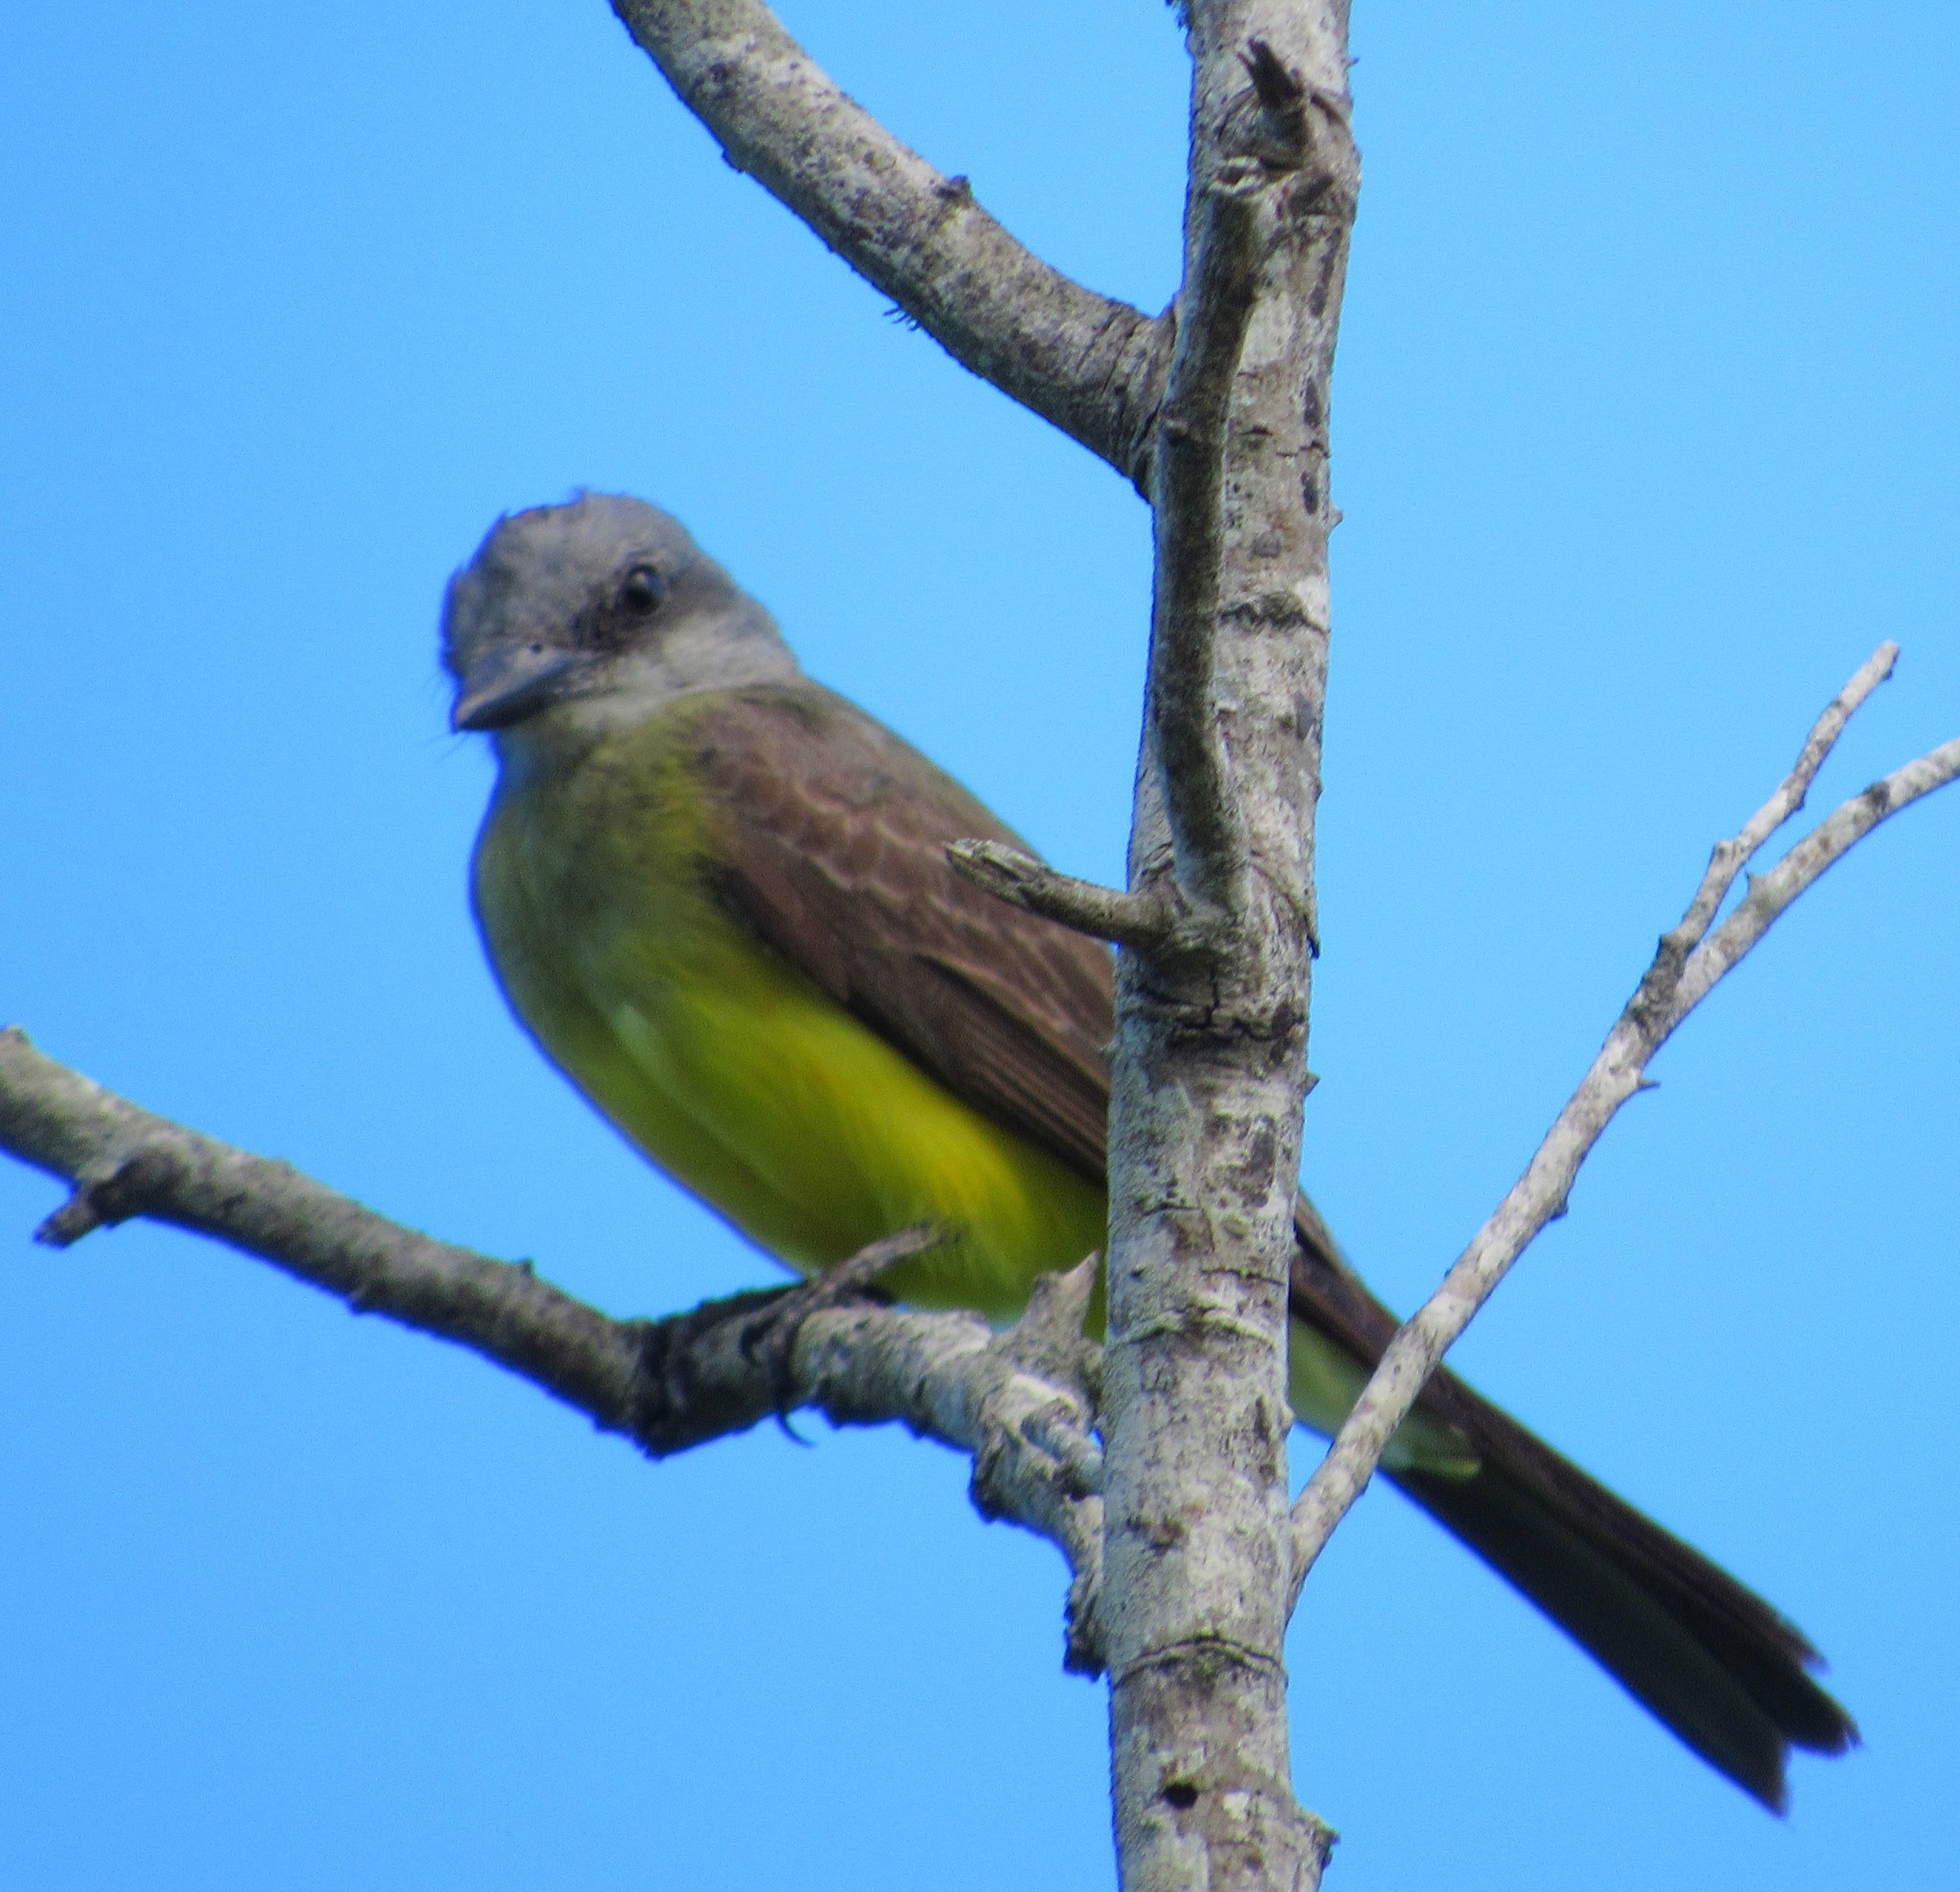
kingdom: Animalia
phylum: Chordata
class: Aves
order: Passeriformes
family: Tyrannidae
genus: Tyrannus
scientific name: Tyrannus melancholicus
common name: Tropical kingbird
